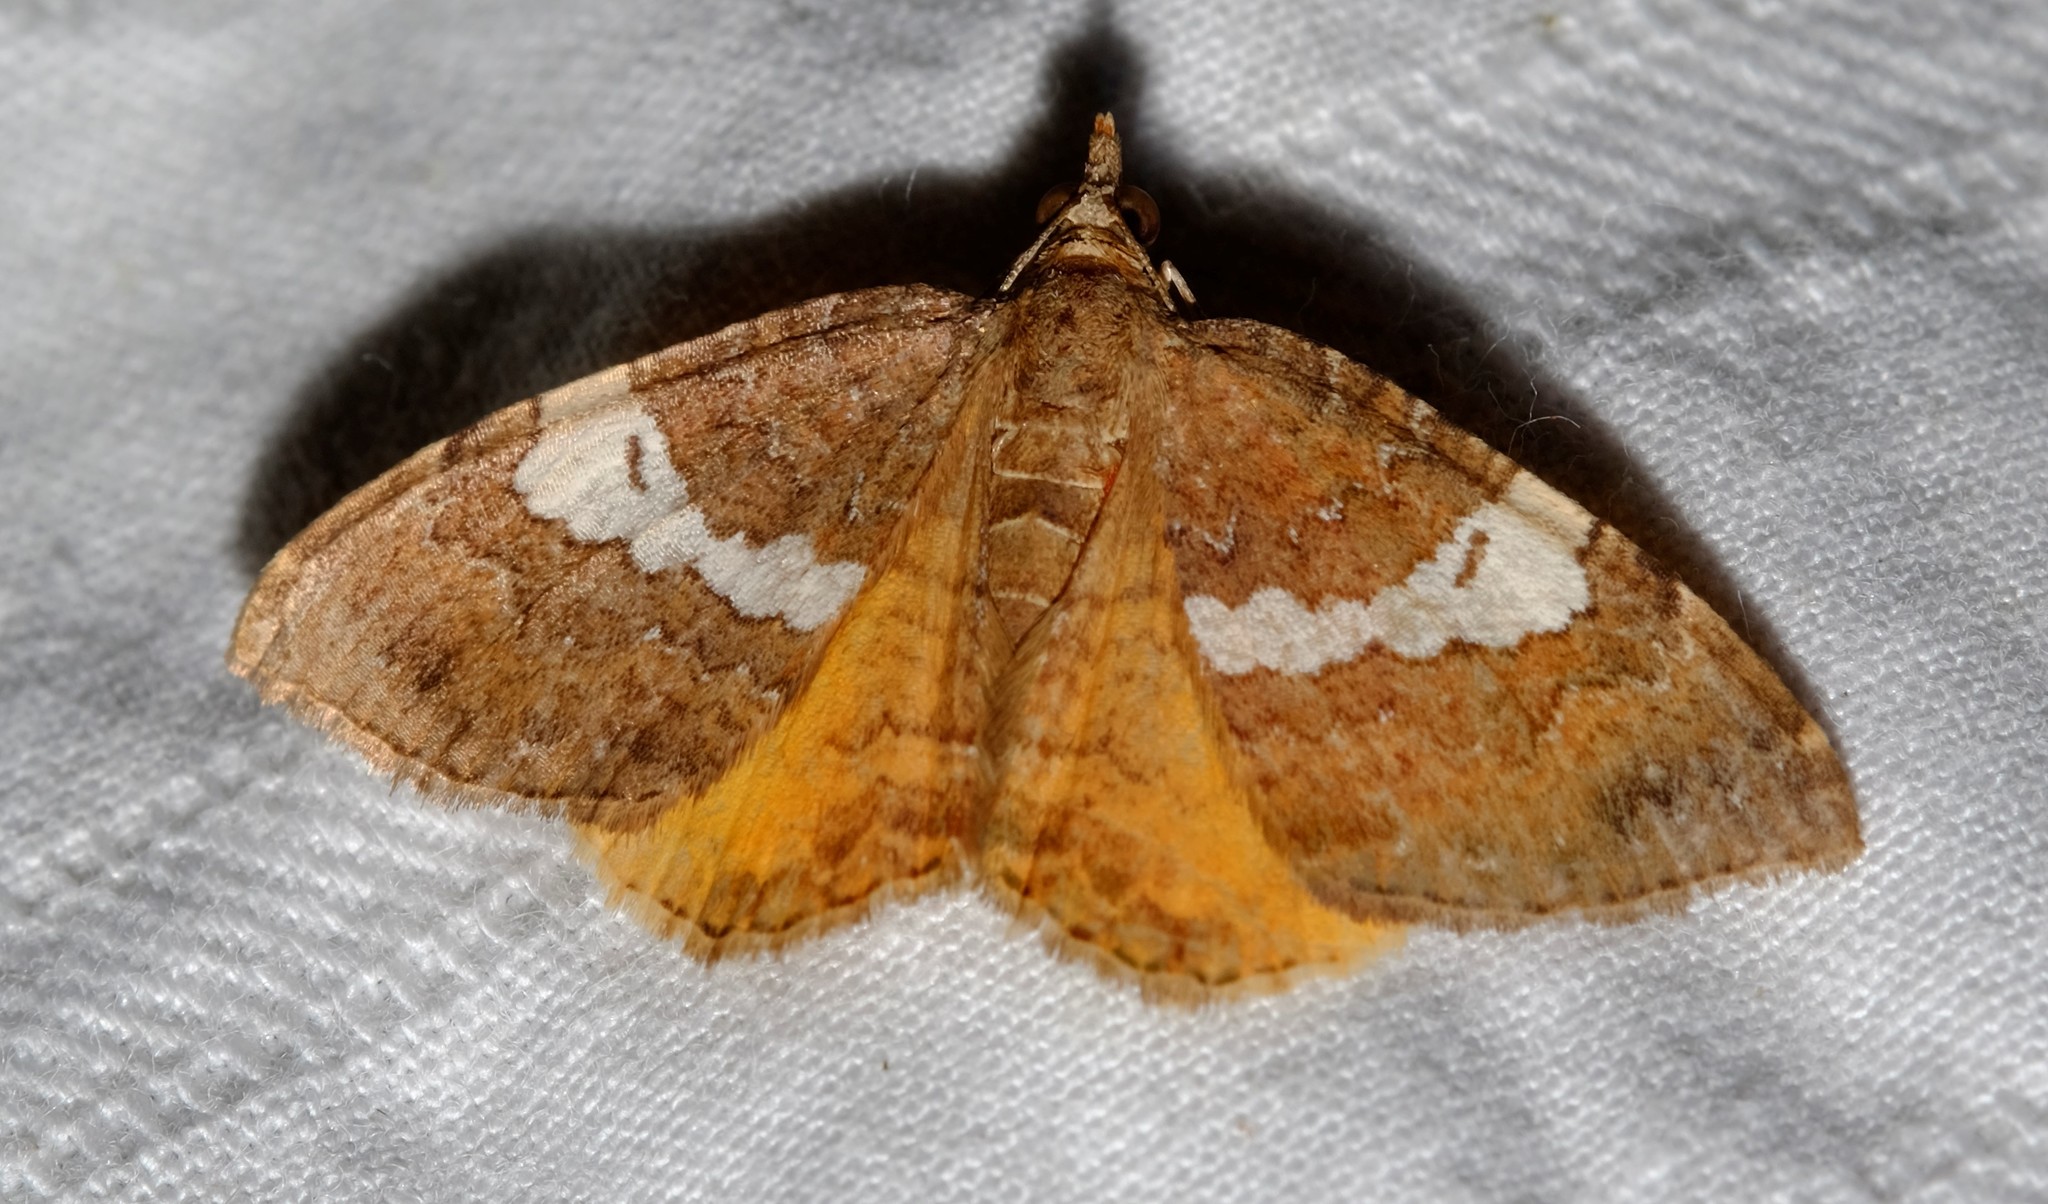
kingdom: Animalia
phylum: Arthropoda
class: Insecta
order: Lepidoptera
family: Geometridae
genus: Chrysolarentia
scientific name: Chrysolarentia heteroleuca
